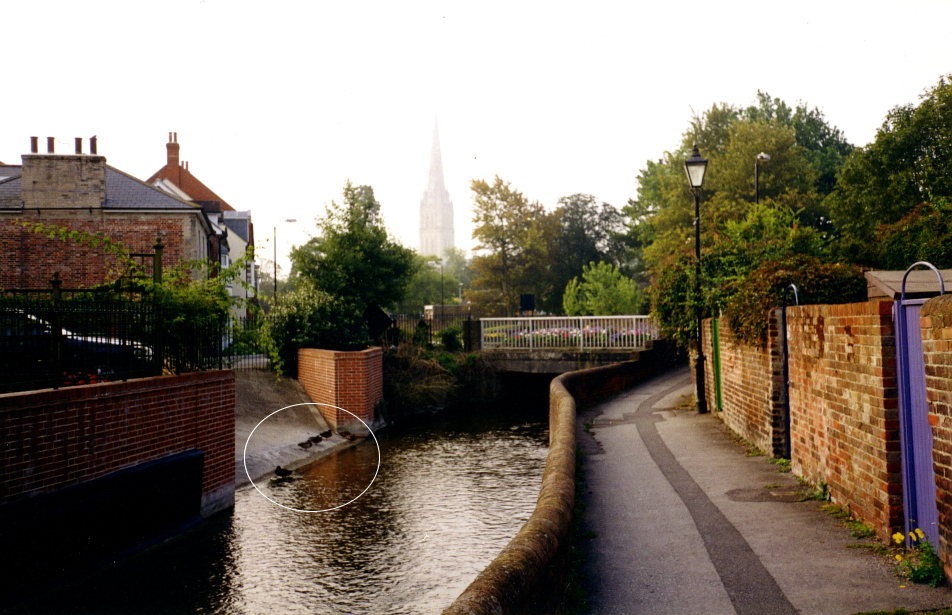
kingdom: Animalia
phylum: Chordata
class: Aves
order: Anseriformes
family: Anatidae
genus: Anas
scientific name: Anas platyrhynchos
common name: Mallard
